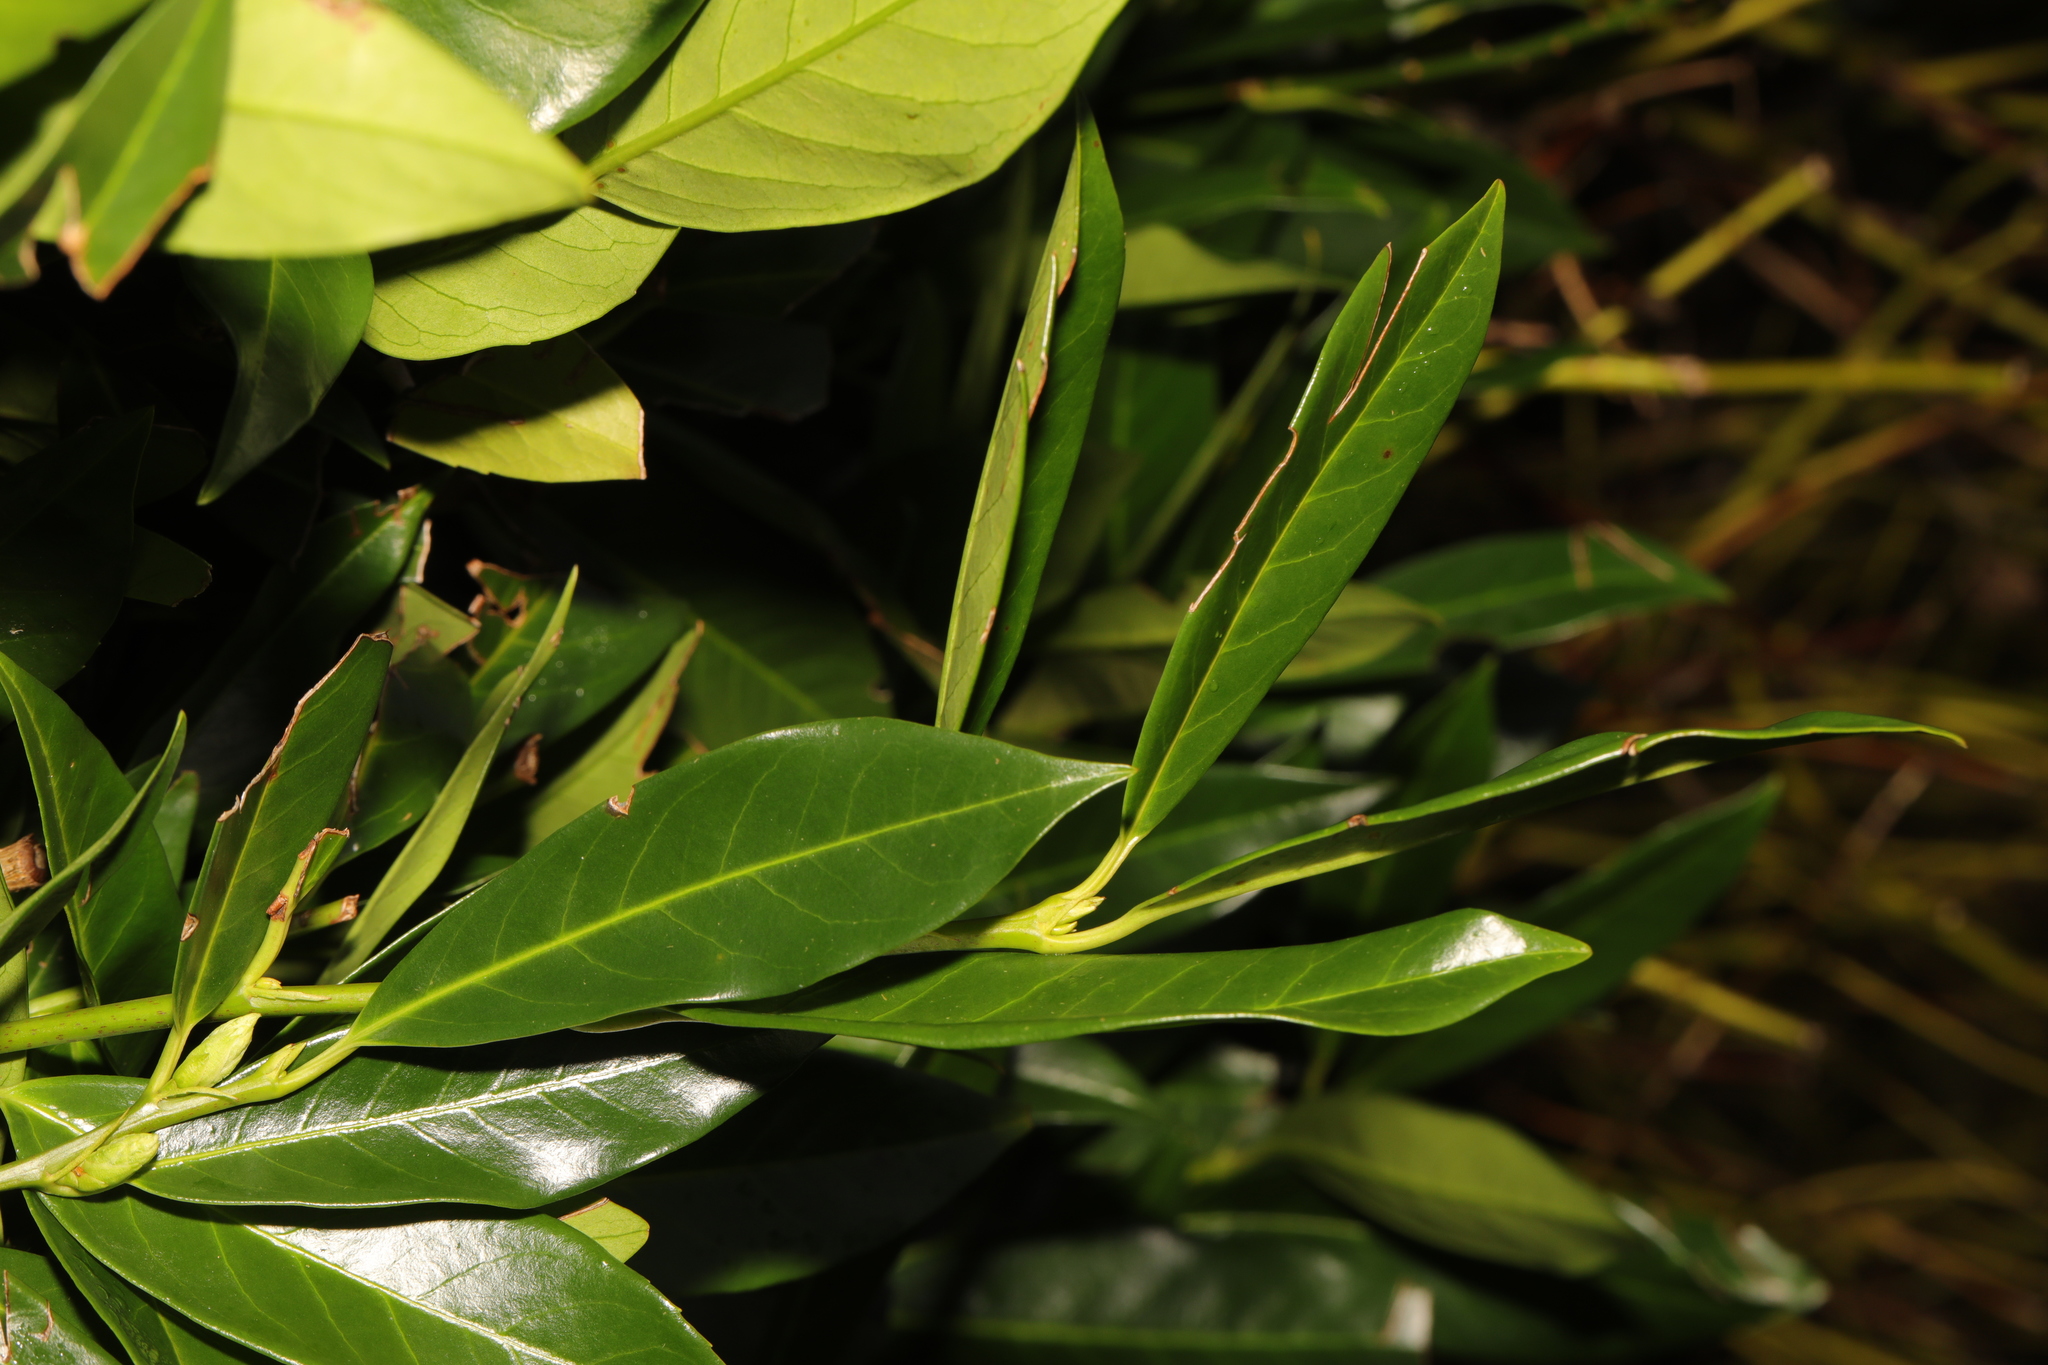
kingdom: Plantae
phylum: Tracheophyta
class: Magnoliopsida
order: Rosales
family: Rosaceae
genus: Prunus
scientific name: Prunus laurocerasus
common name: Cherry laurel
